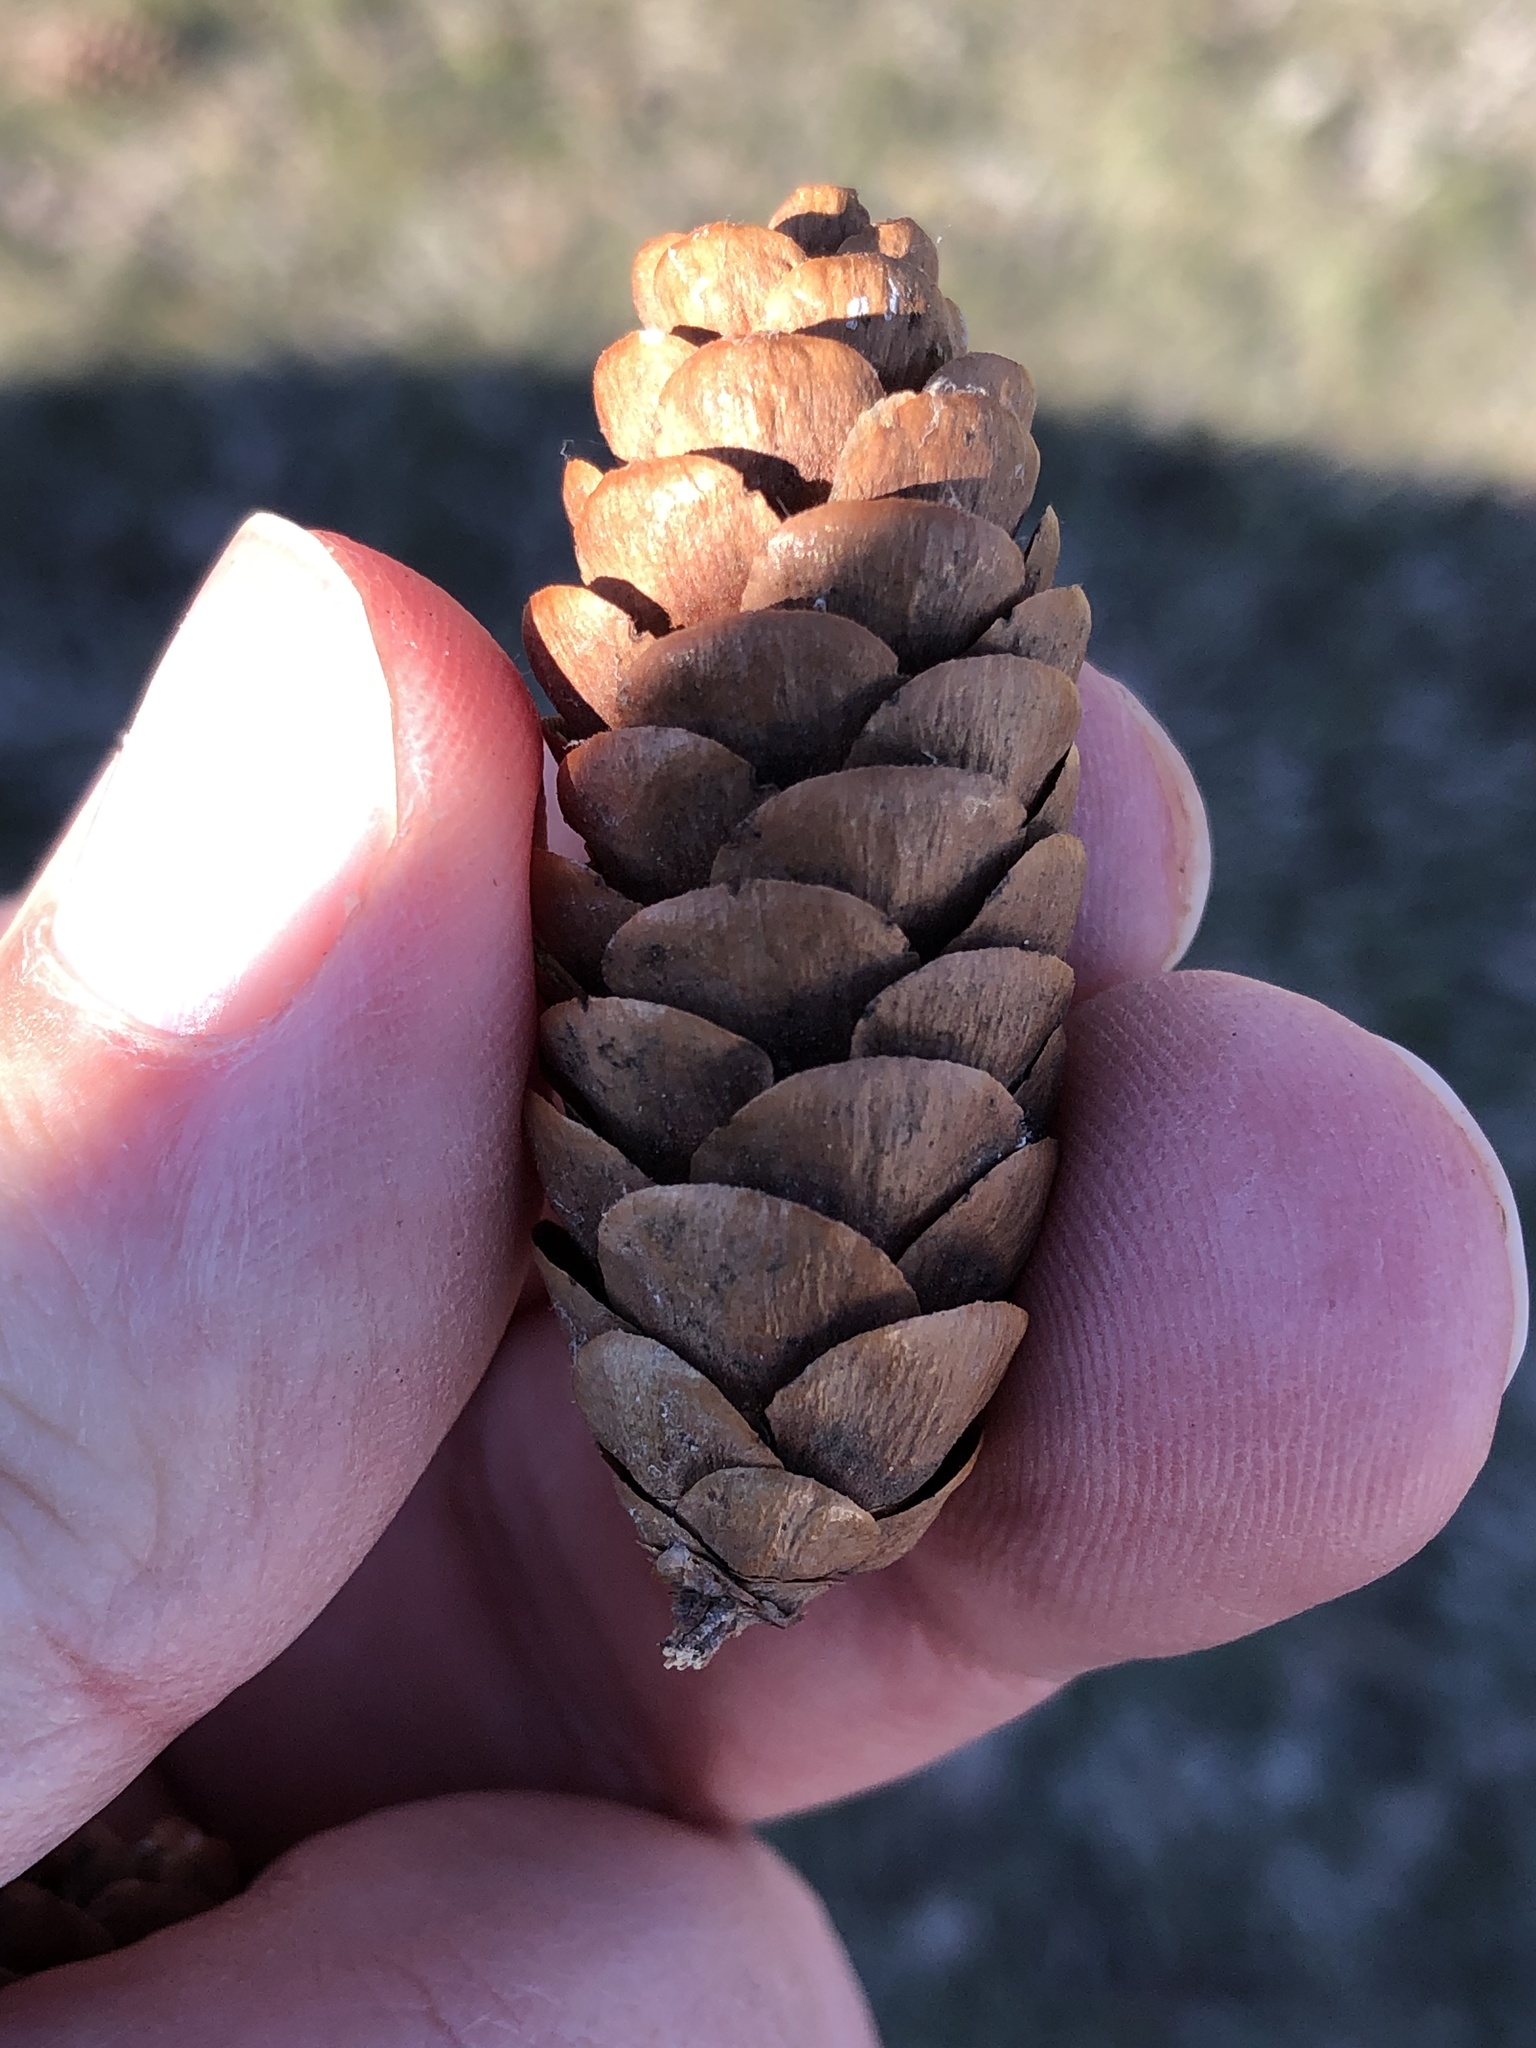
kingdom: Plantae
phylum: Tracheophyta
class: Pinopsida
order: Pinales
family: Pinaceae
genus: Picea
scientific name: Picea glauca
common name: White spruce
